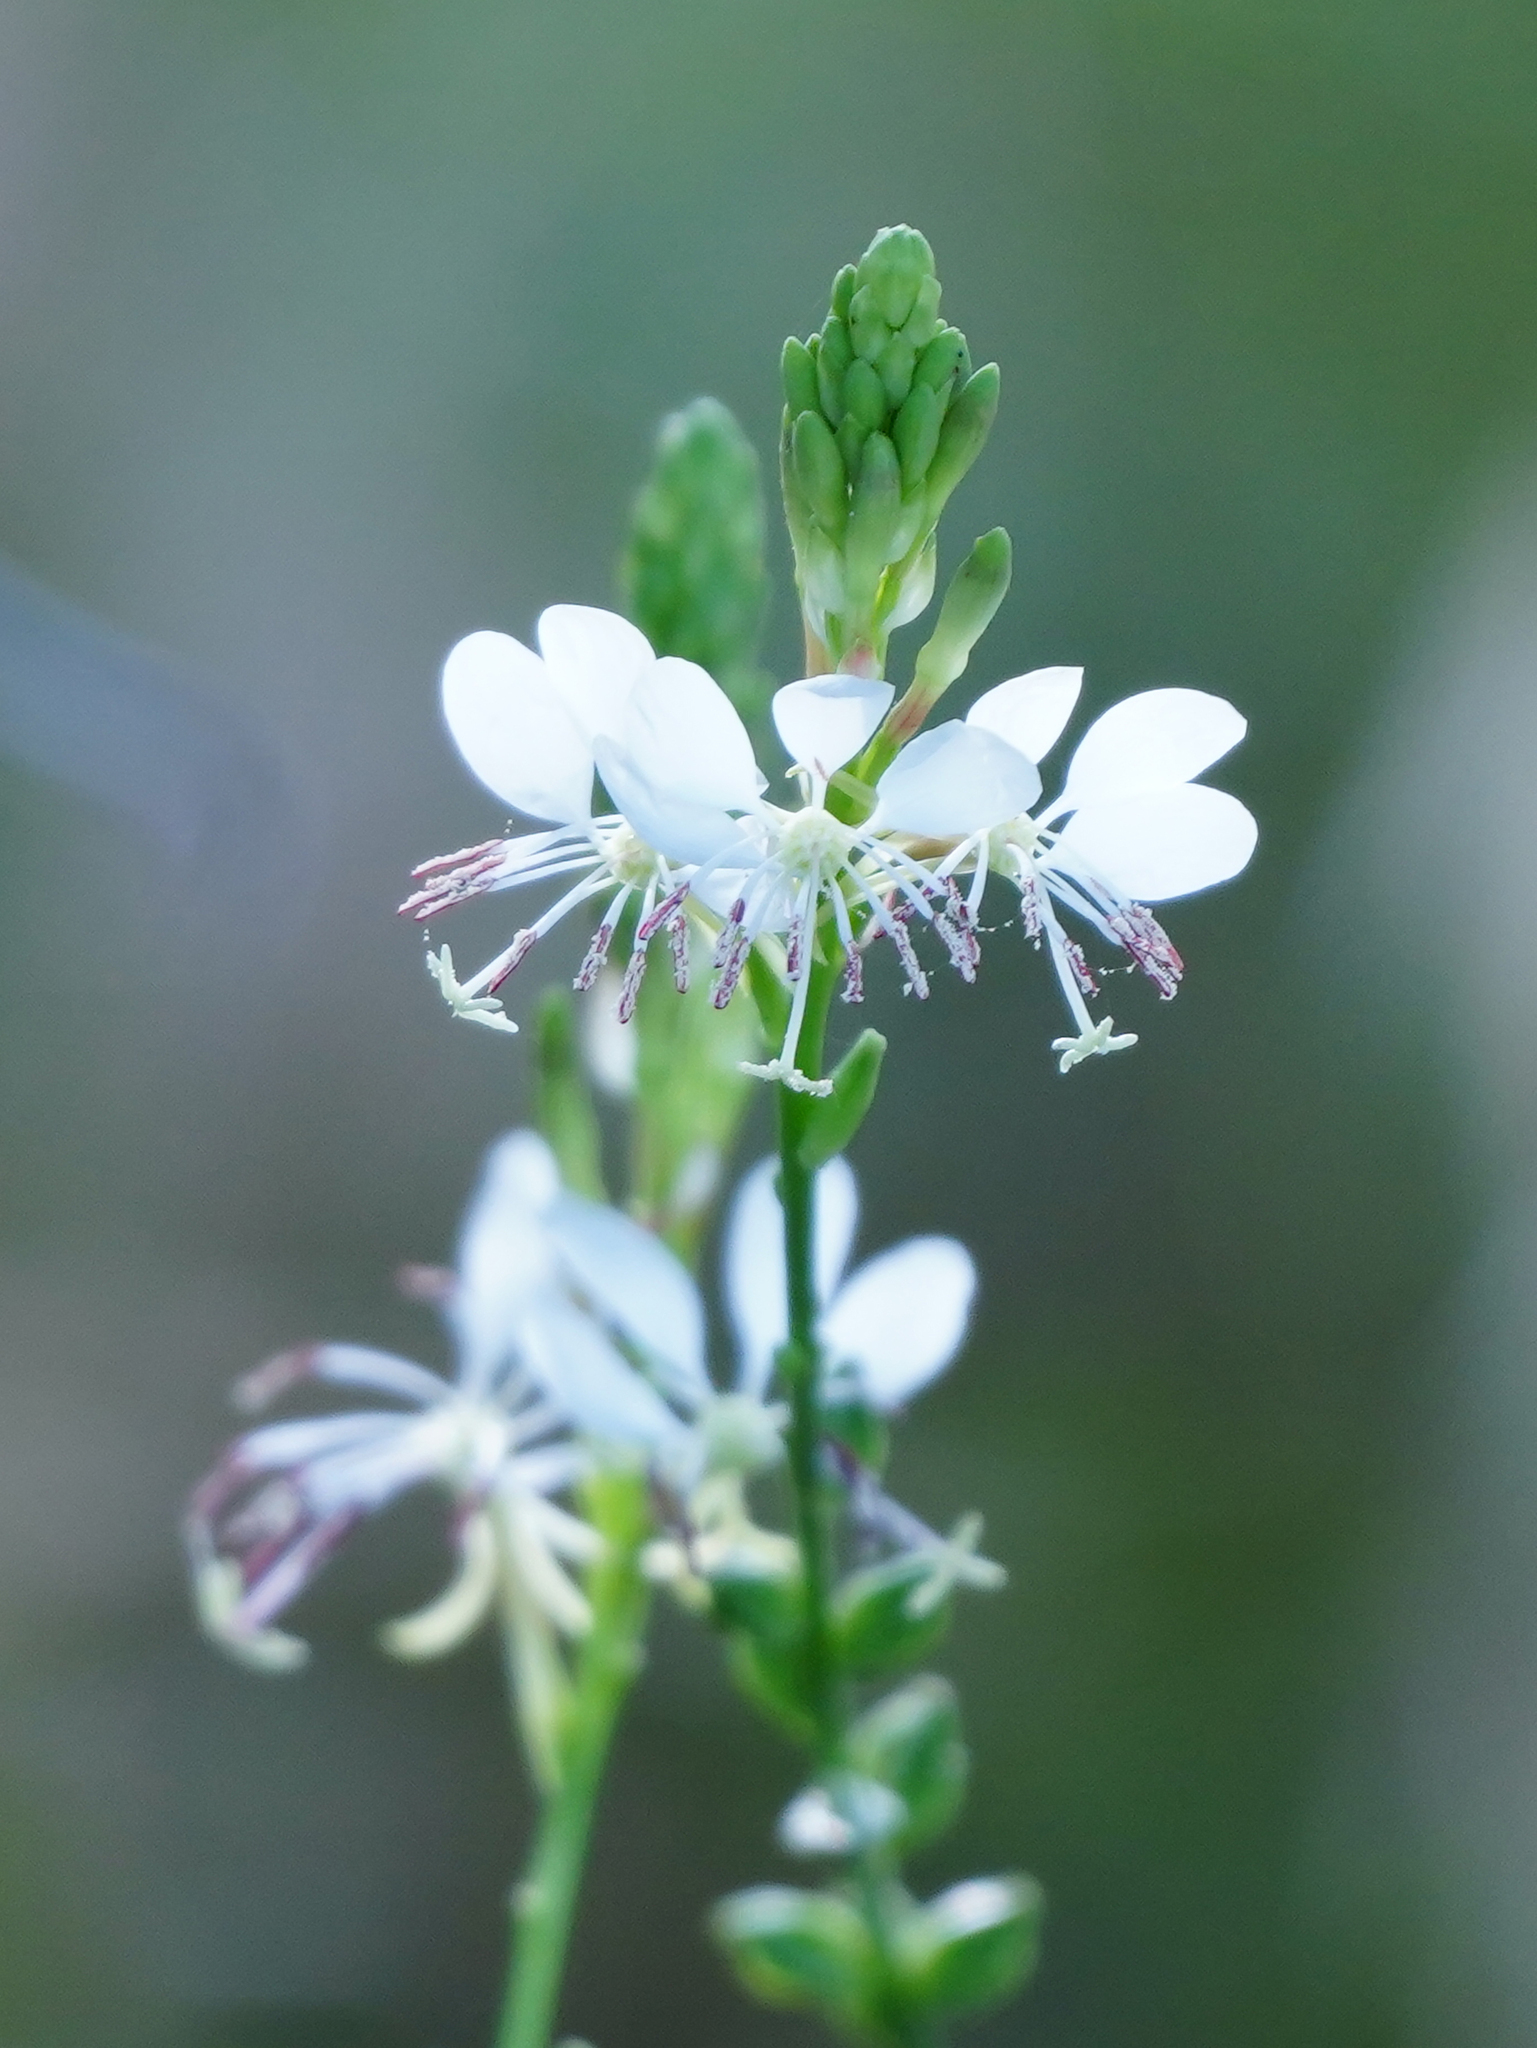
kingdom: Plantae
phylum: Tracheophyta
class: Magnoliopsida
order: Myrtales
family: Onagraceae
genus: Oenothera
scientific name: Oenothera suffulta
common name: Kisses
